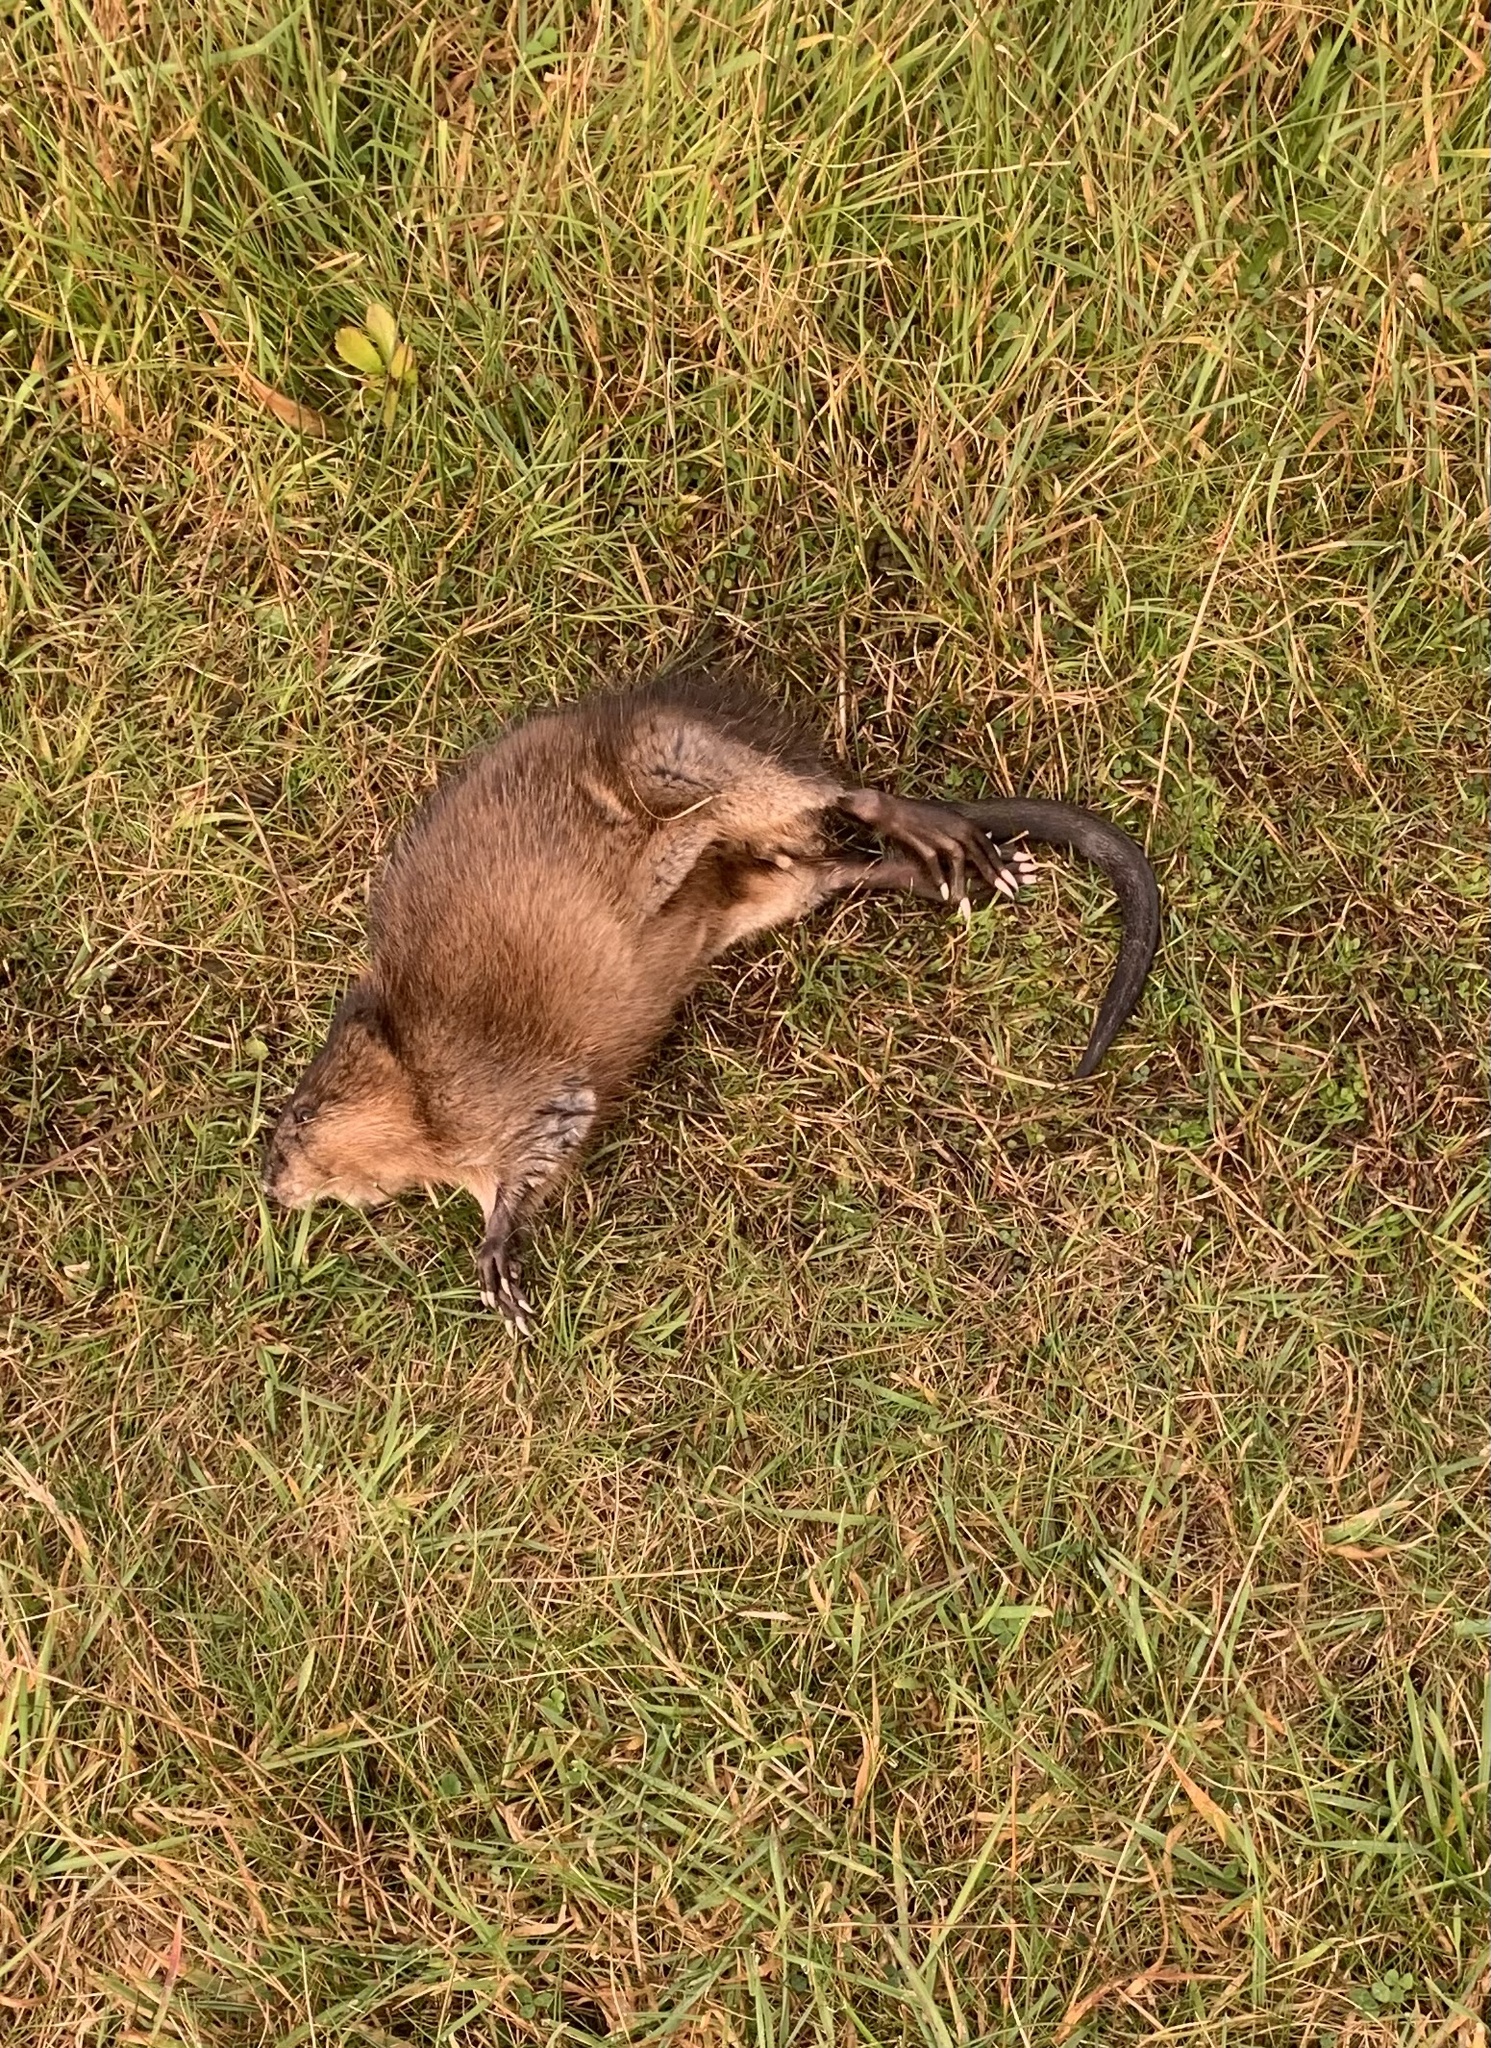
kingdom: Animalia
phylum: Chordata
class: Mammalia
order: Rodentia
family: Cricetidae
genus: Ondatra
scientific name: Ondatra zibethicus
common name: Muskrat
